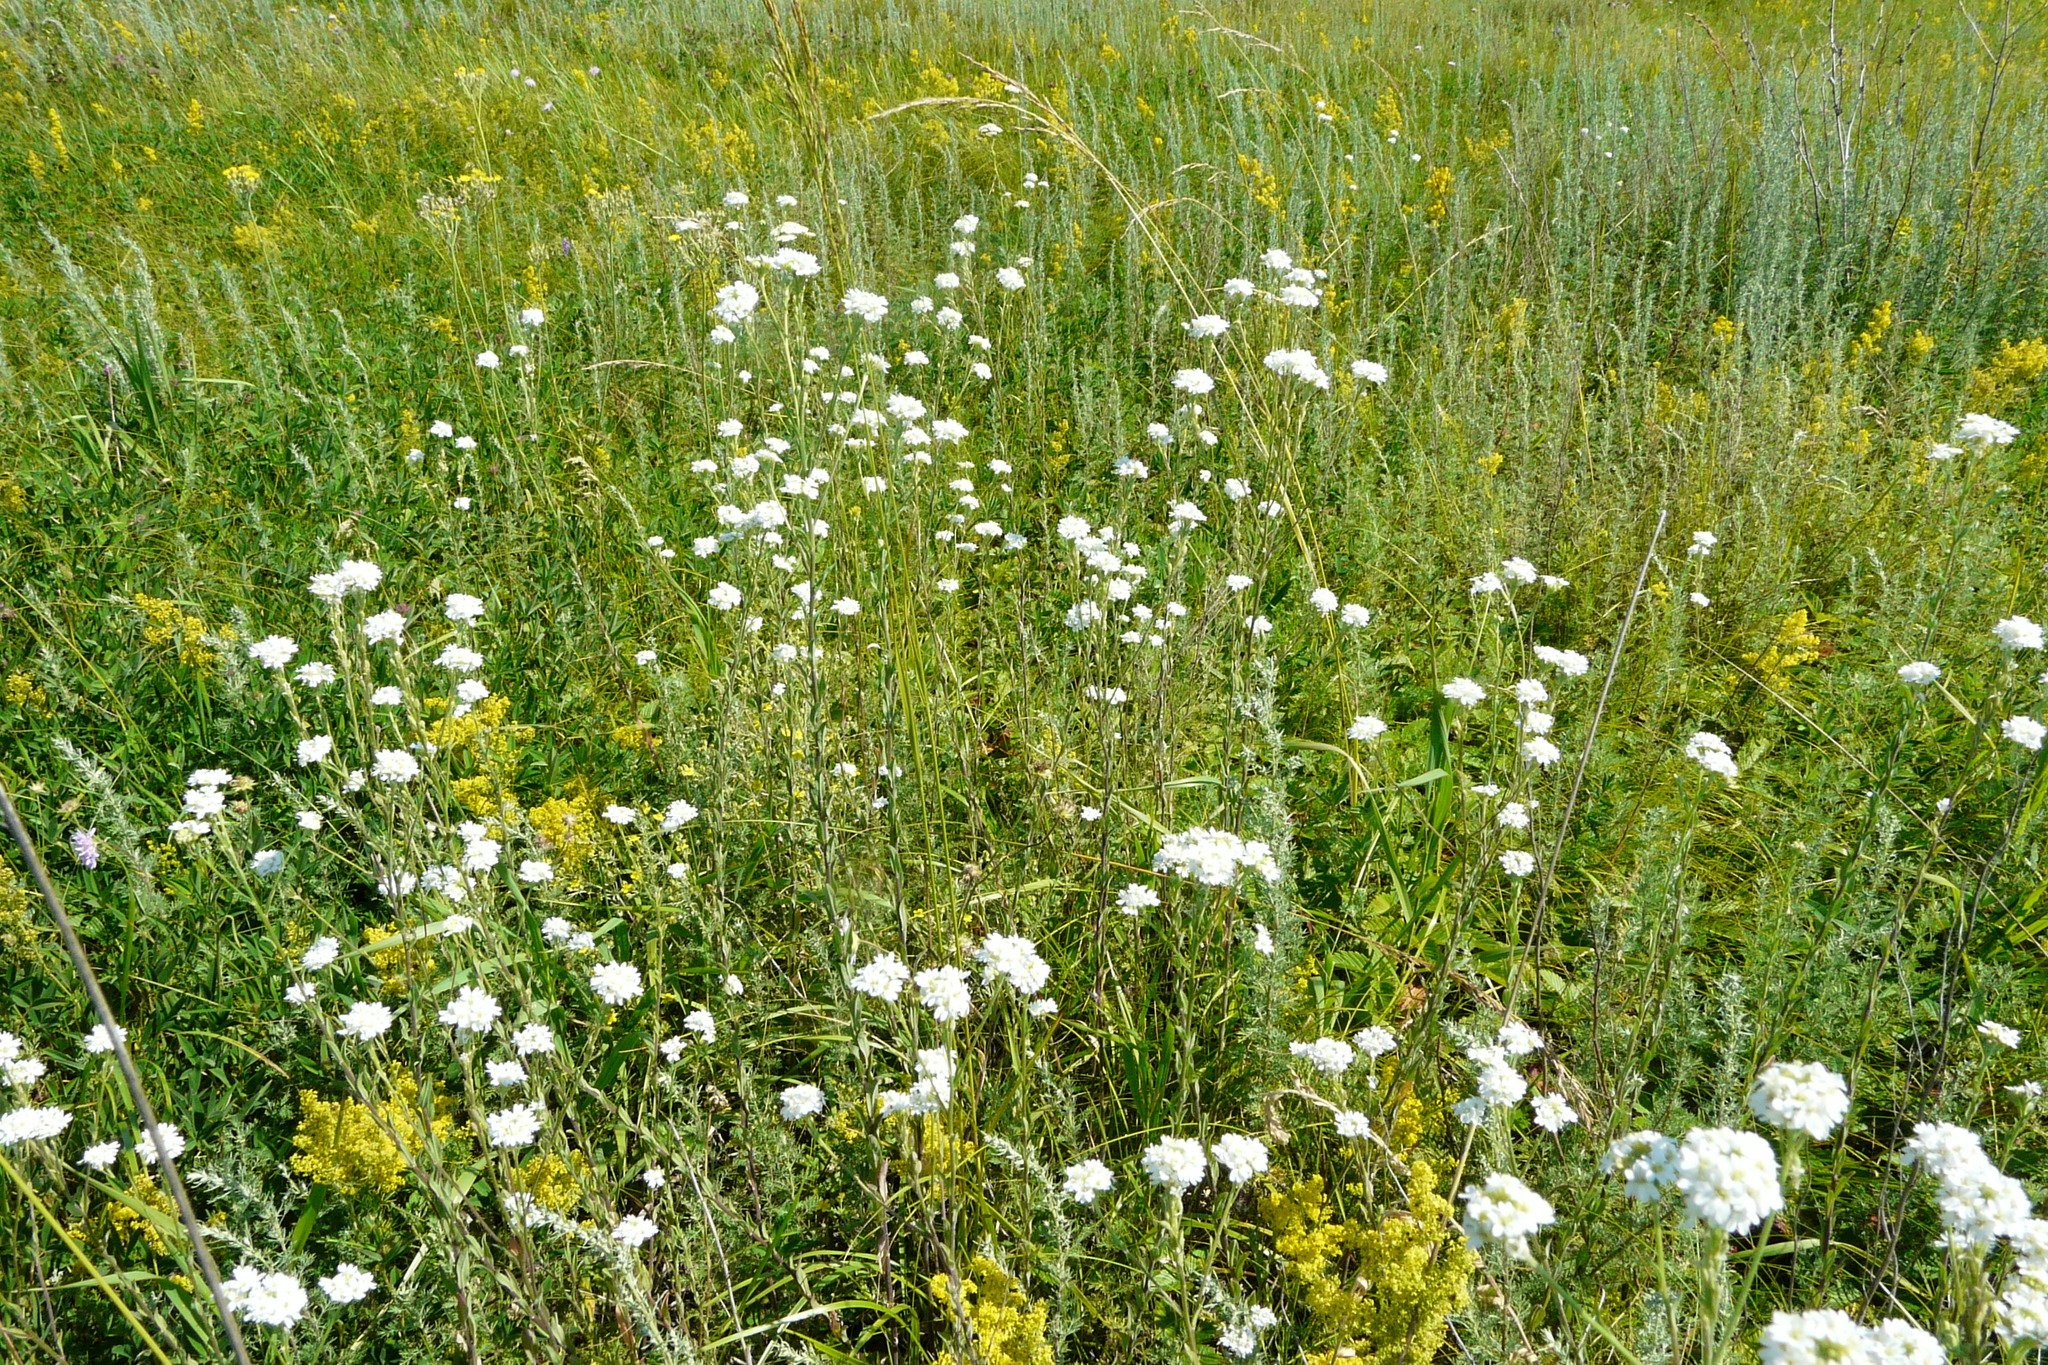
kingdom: Plantae
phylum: Tracheophyta
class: Magnoliopsida
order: Brassicales
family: Brassicaceae
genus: Berteroa
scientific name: Berteroa incana
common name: Hoary alison
